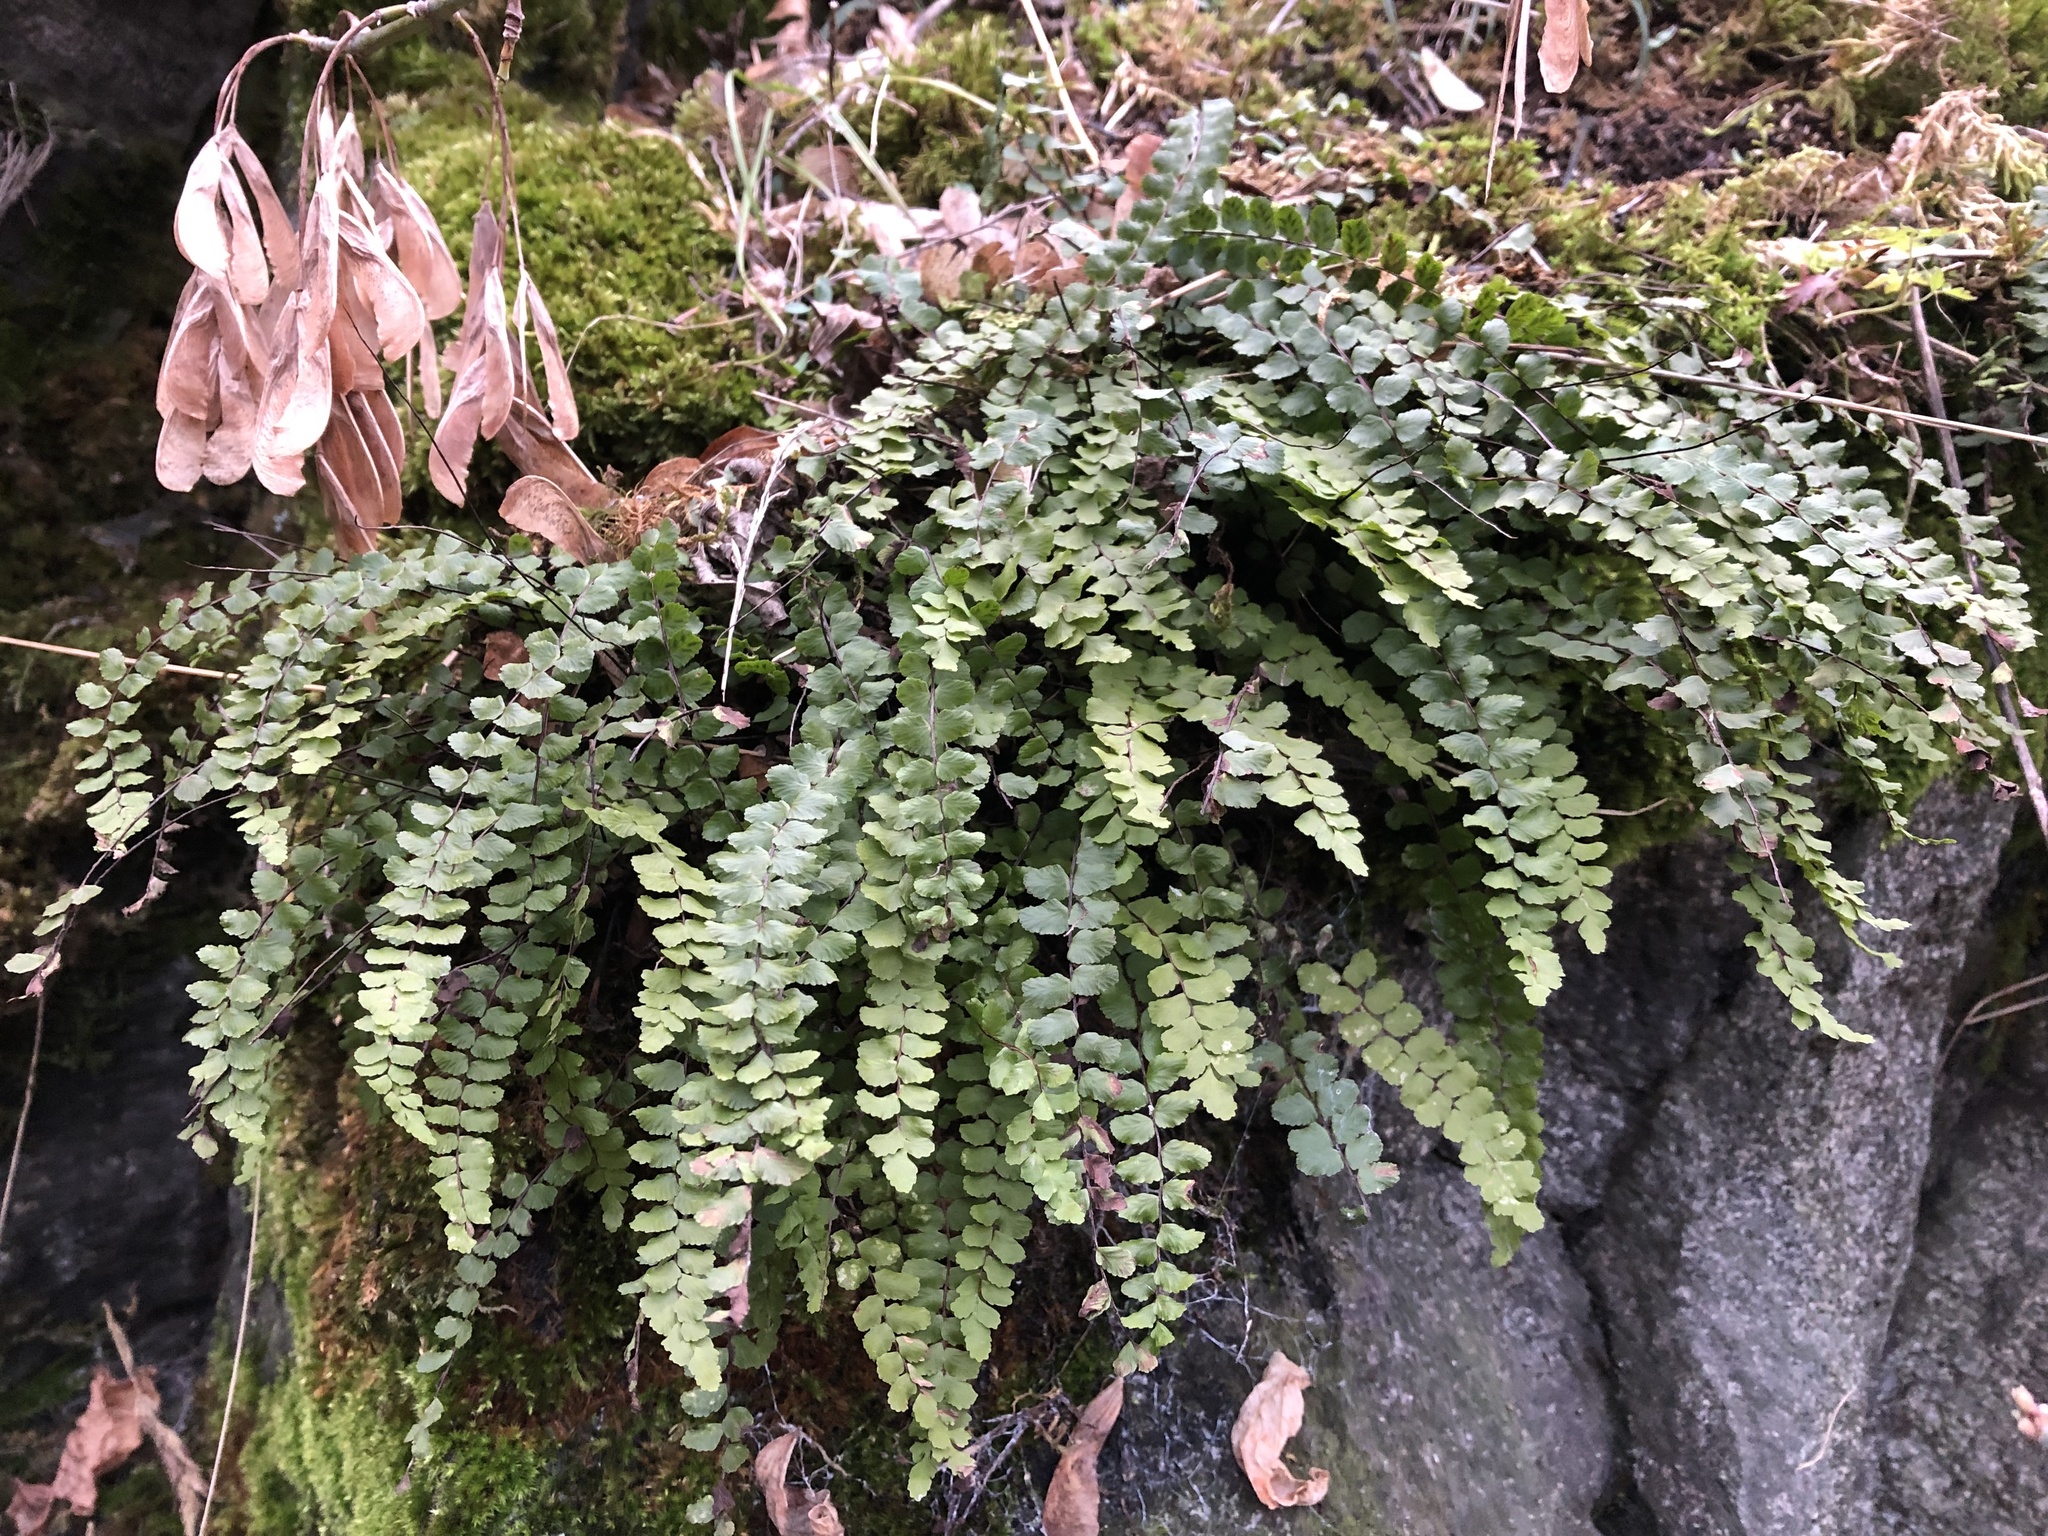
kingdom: Plantae
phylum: Tracheophyta
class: Polypodiopsida
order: Polypodiales
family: Aspleniaceae
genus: Asplenium
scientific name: Asplenium trichomanes
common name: Maidenhair spleenwort
